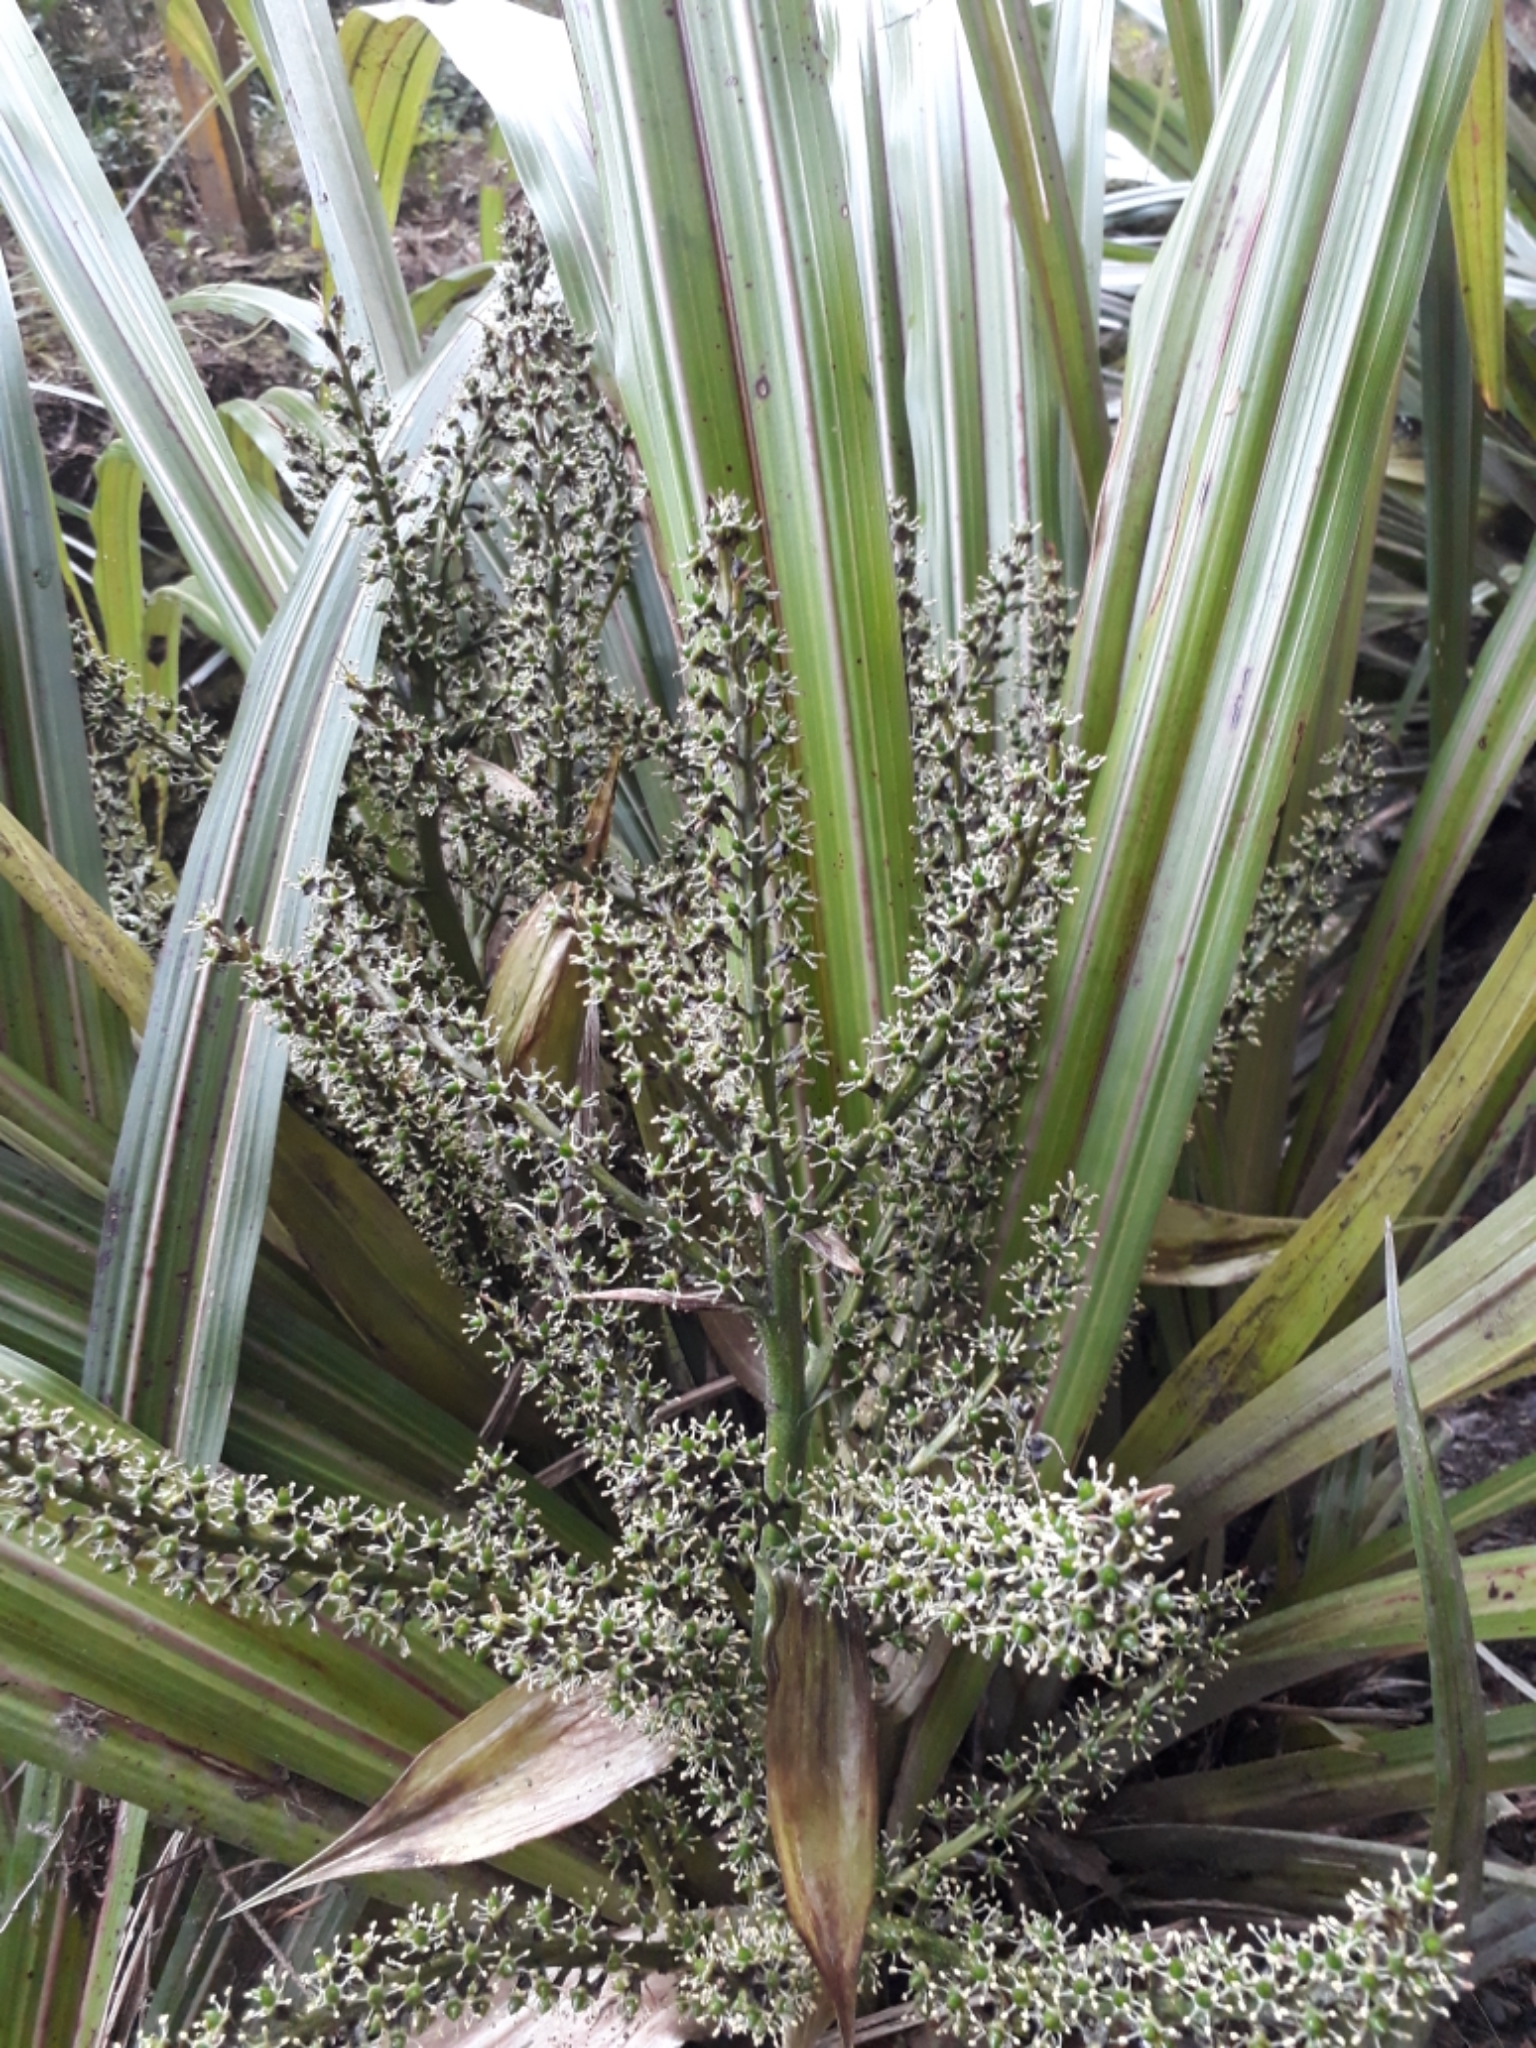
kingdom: Plantae
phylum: Tracheophyta
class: Liliopsida
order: Asparagales
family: Asteliaceae
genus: Astelia
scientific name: Astelia fragrans
